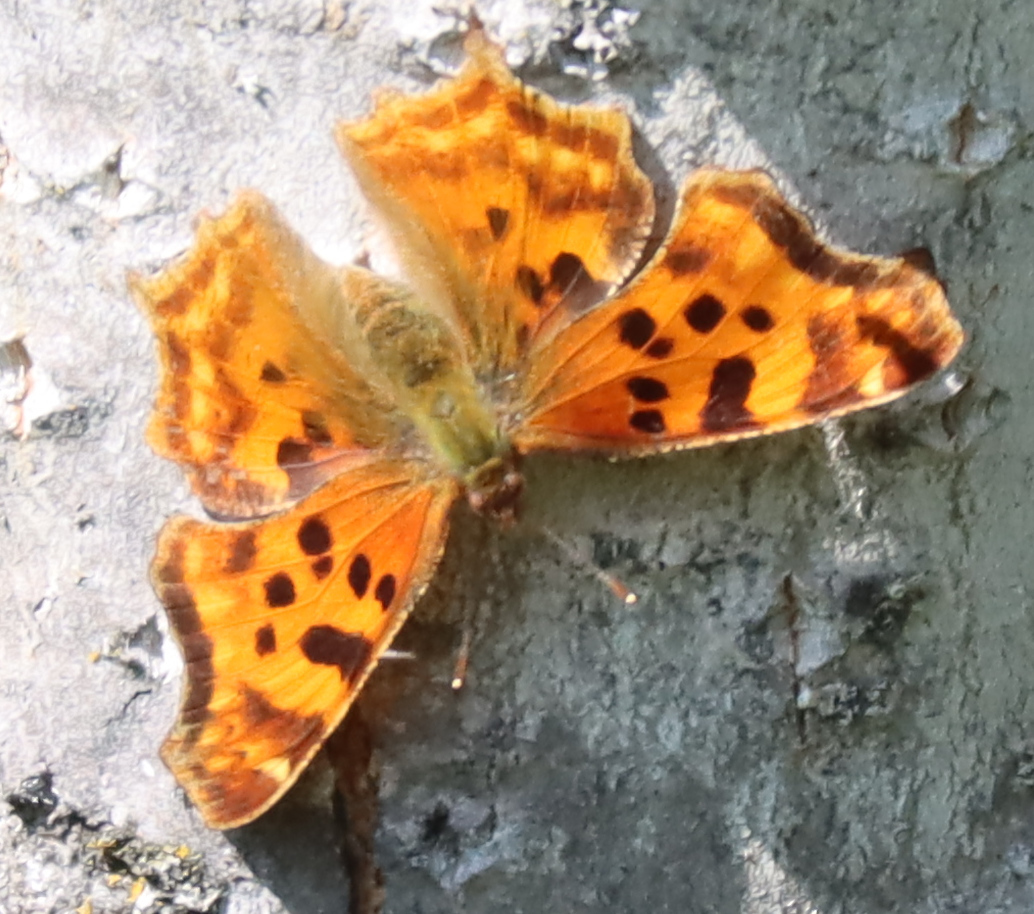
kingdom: Animalia
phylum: Arthropoda
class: Insecta
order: Lepidoptera
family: Nymphalidae
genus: Polygonia
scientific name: Polygonia satyrus
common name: Satyr angle wing
